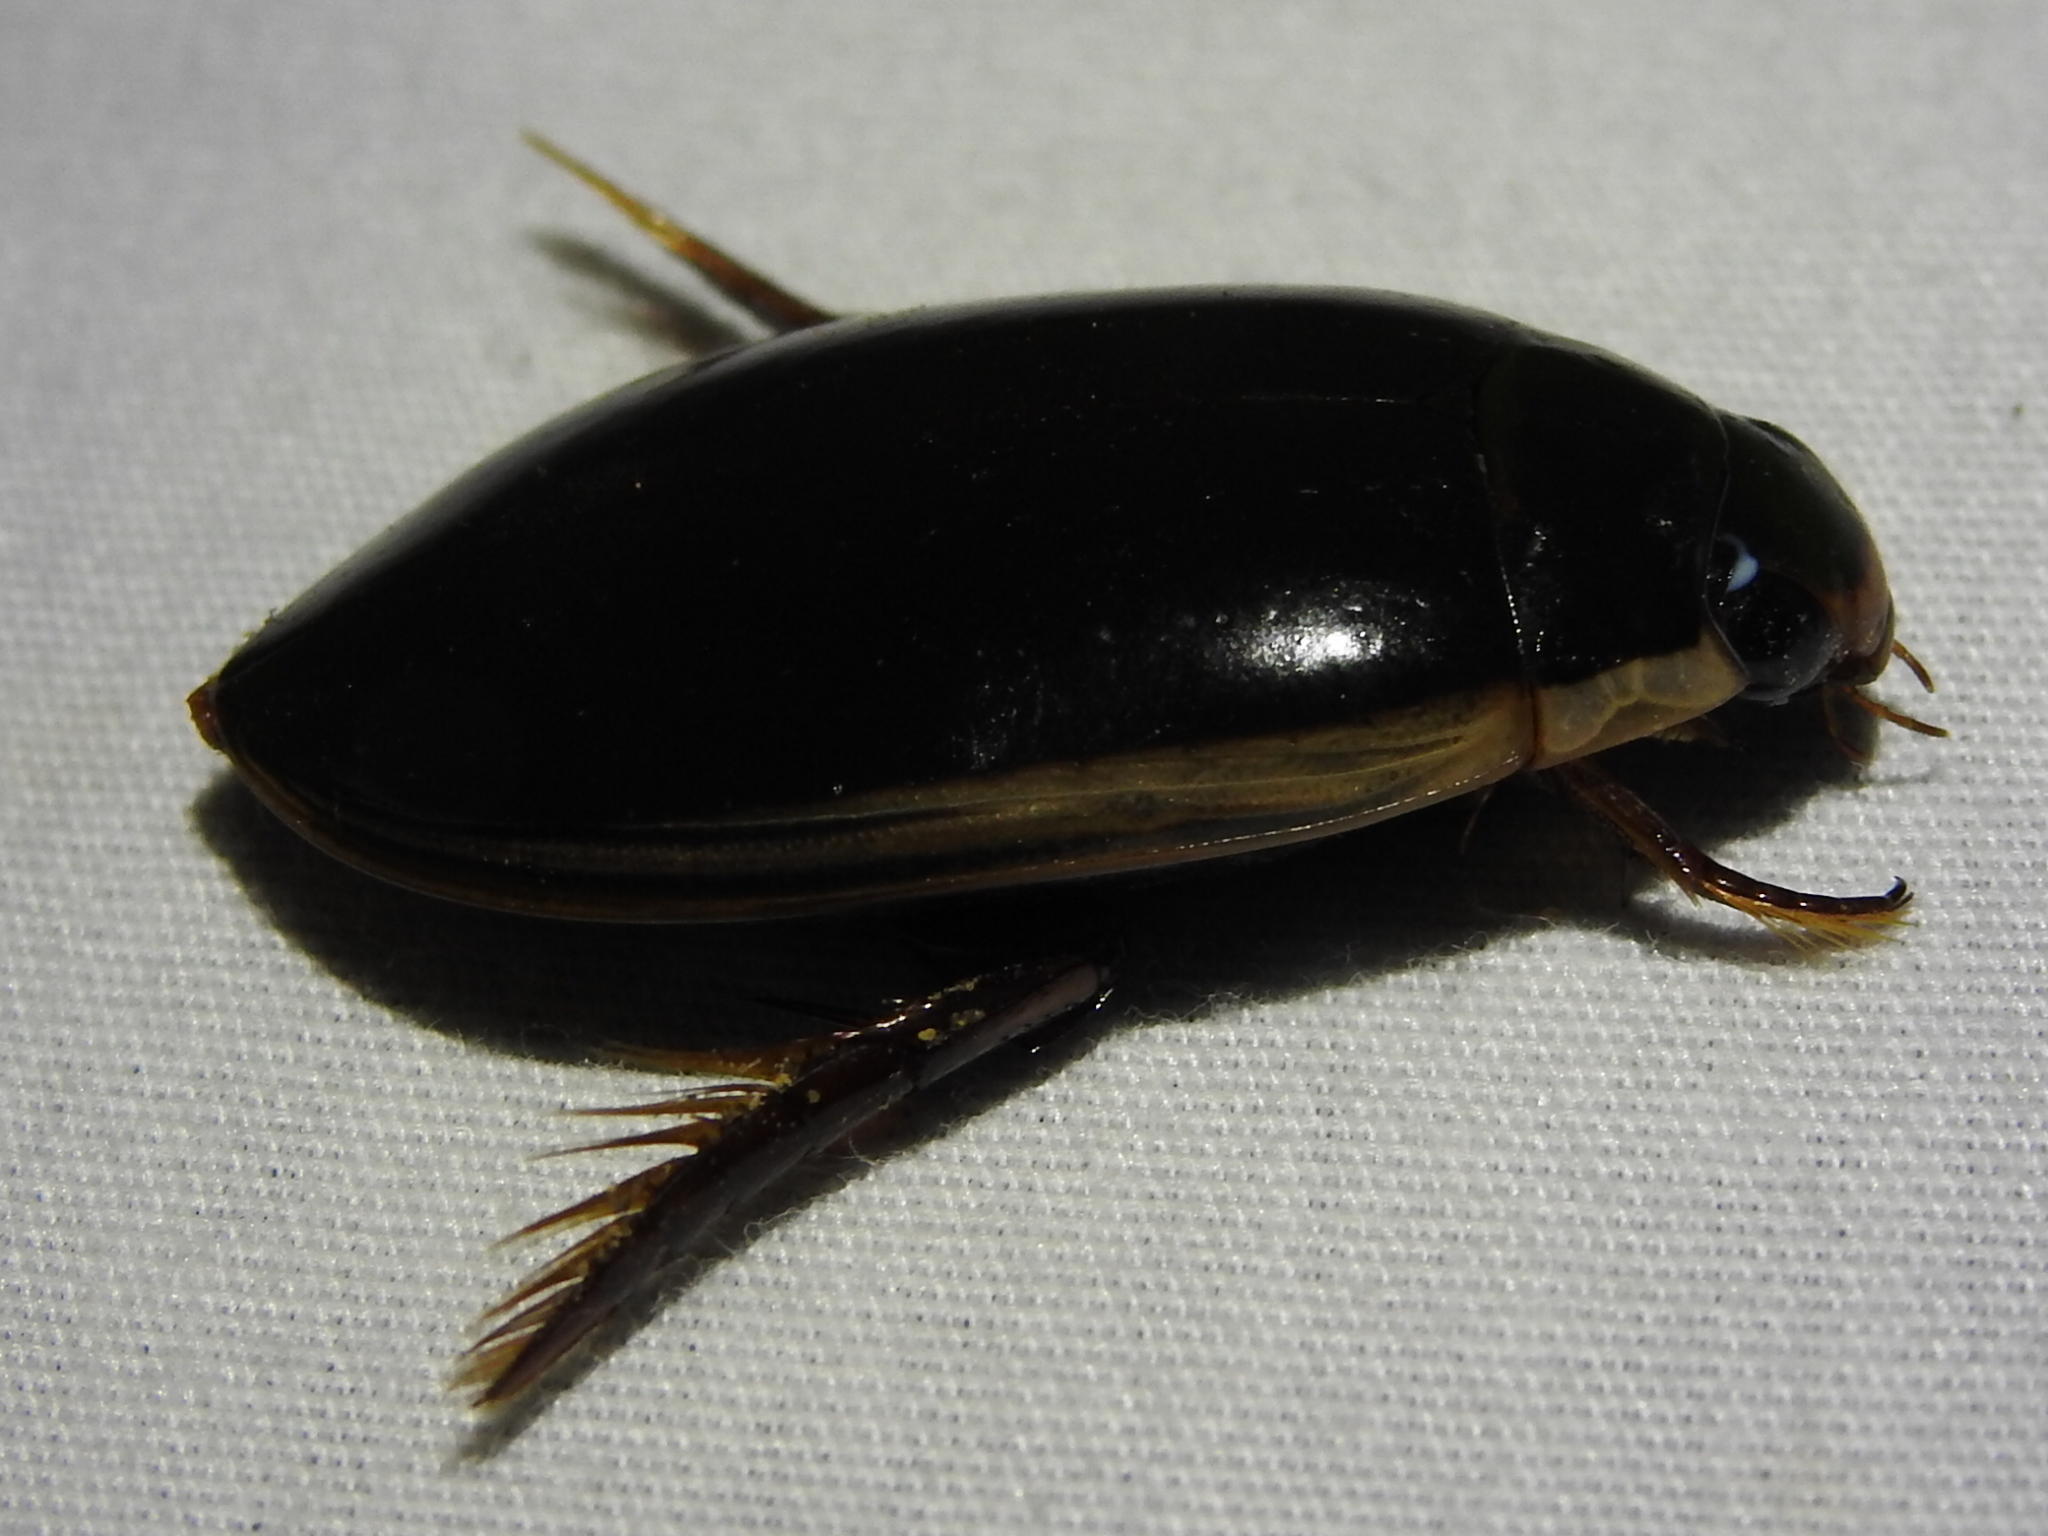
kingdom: Animalia
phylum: Arthropoda
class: Insecta
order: Coleoptera
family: Dytiscidae
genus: Cybister
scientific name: Cybister fimbriolatus
